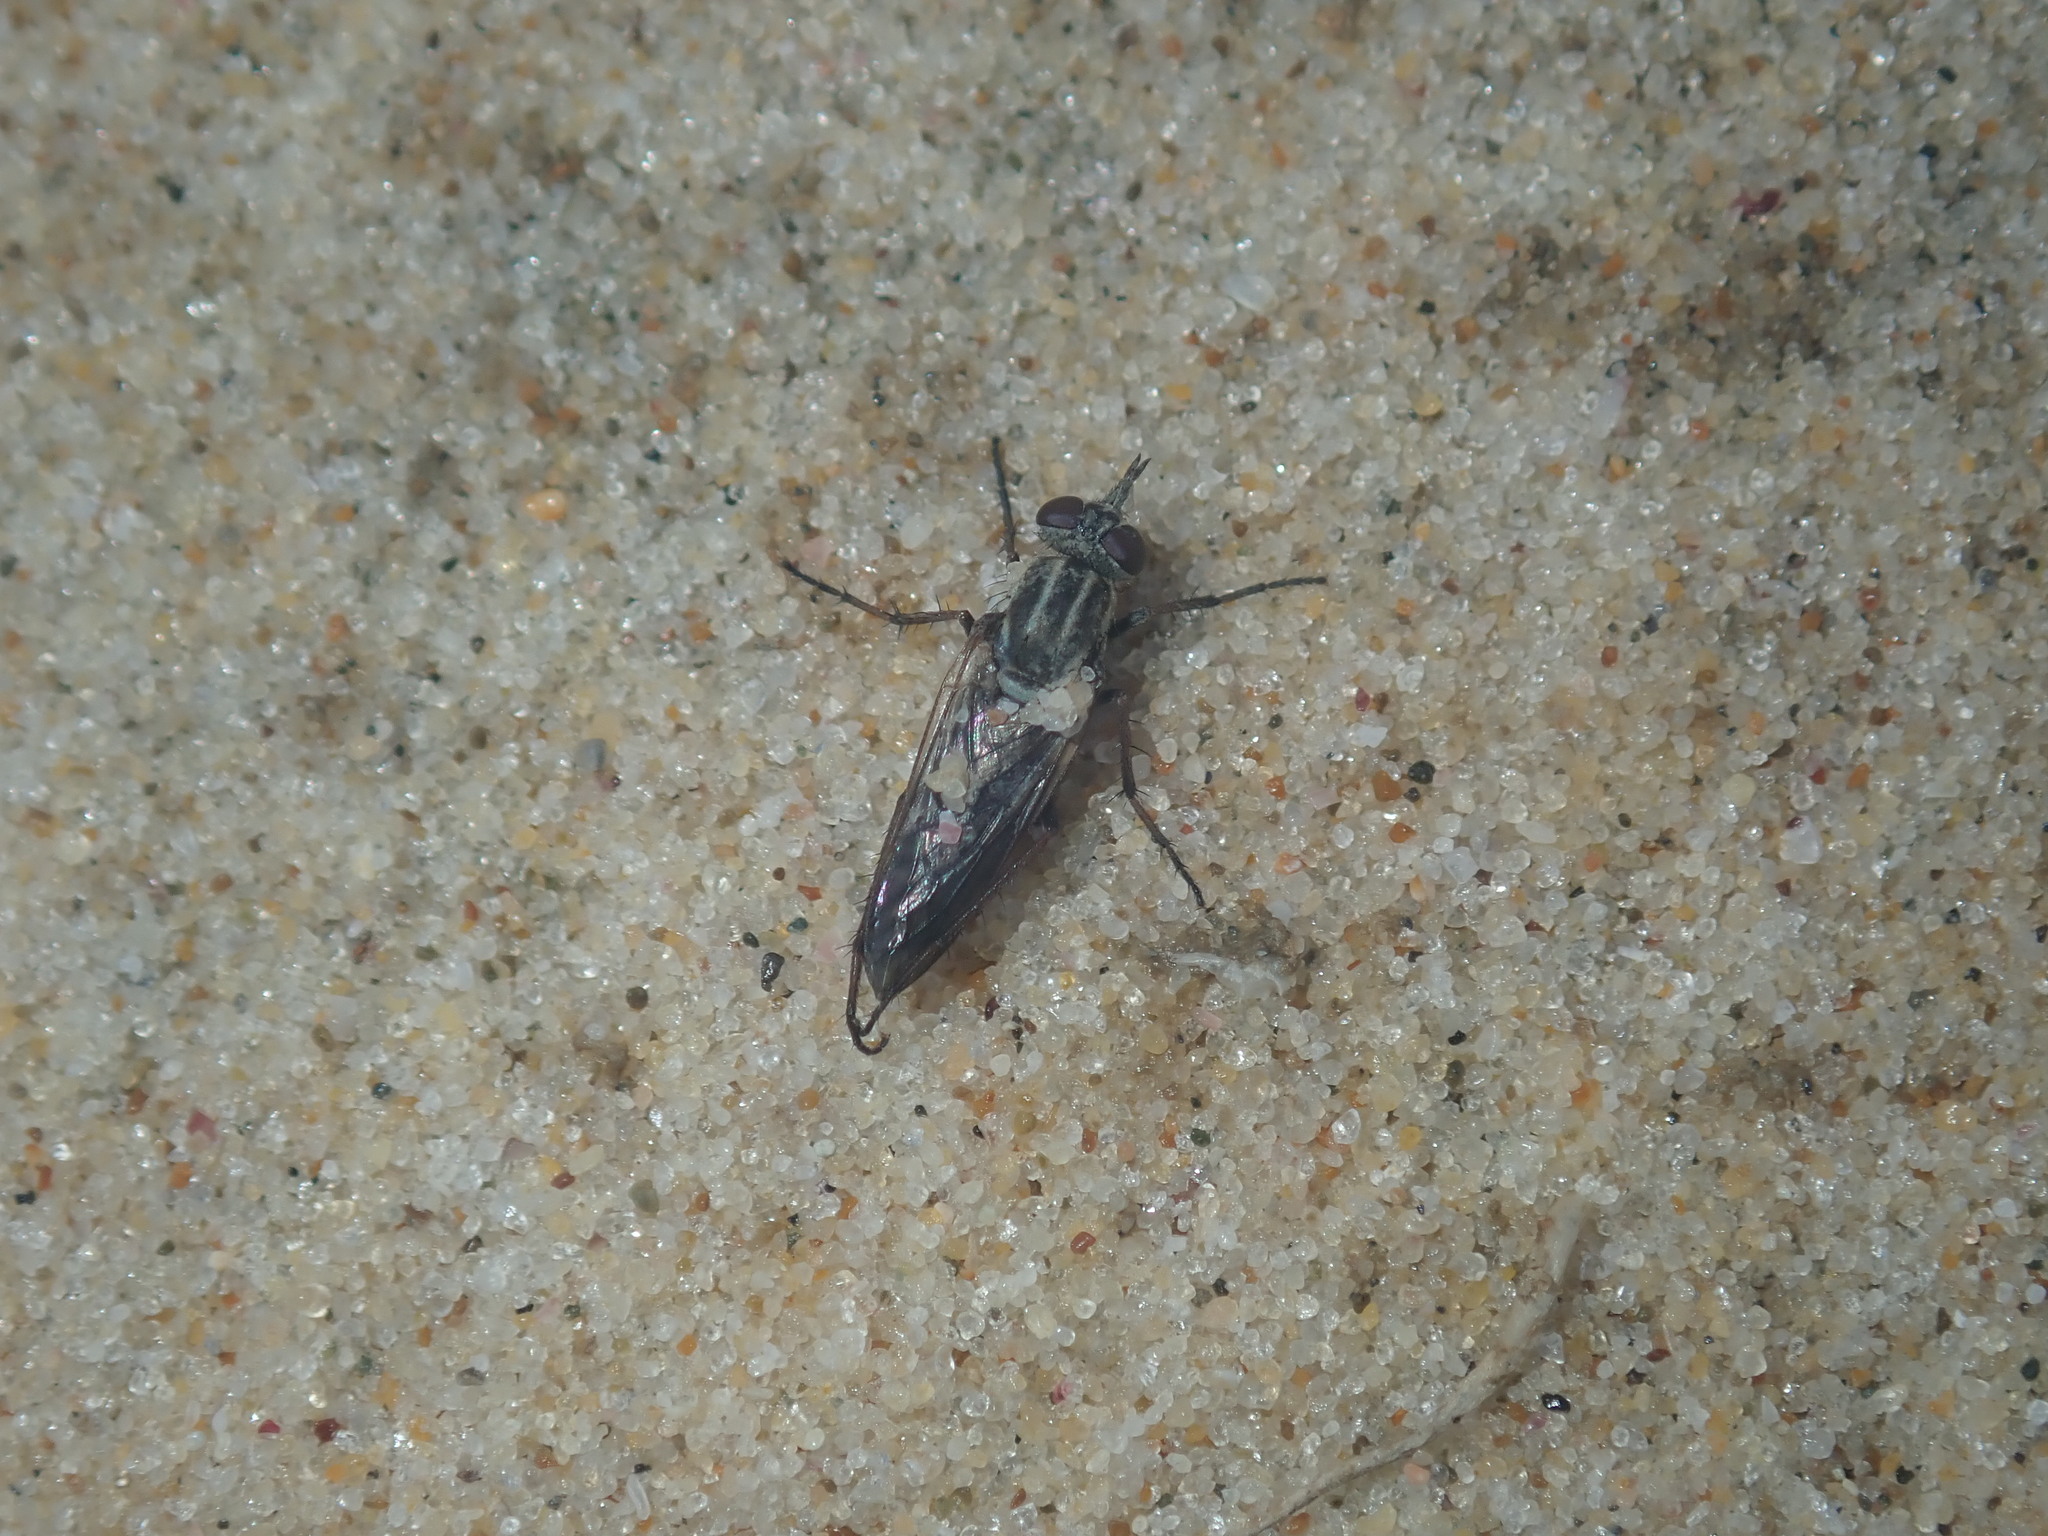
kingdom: Animalia
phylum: Arthropoda
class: Insecta
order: Diptera
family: Therevidae
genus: Anabarhynchus
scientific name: Anabarhynchus hyalipennis
